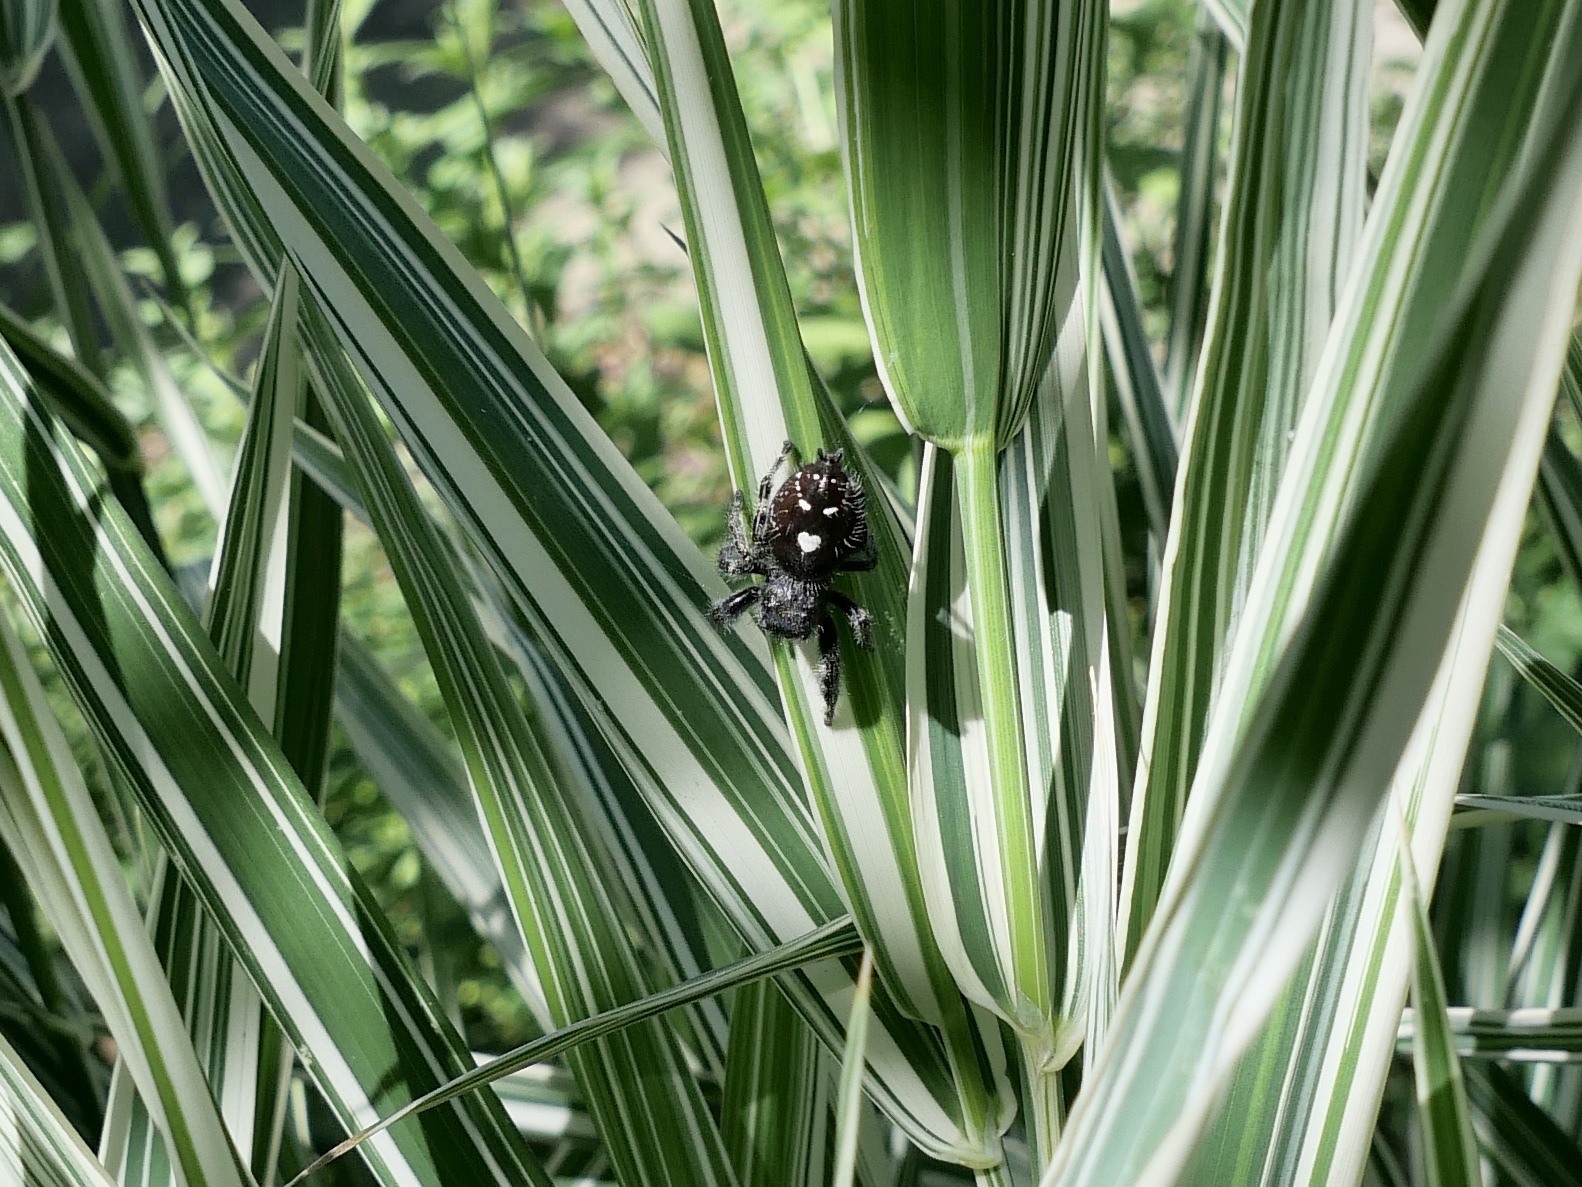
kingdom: Animalia
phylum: Arthropoda
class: Arachnida
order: Araneae
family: Salticidae
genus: Phidippus
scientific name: Phidippus audax
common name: Bold jumper
